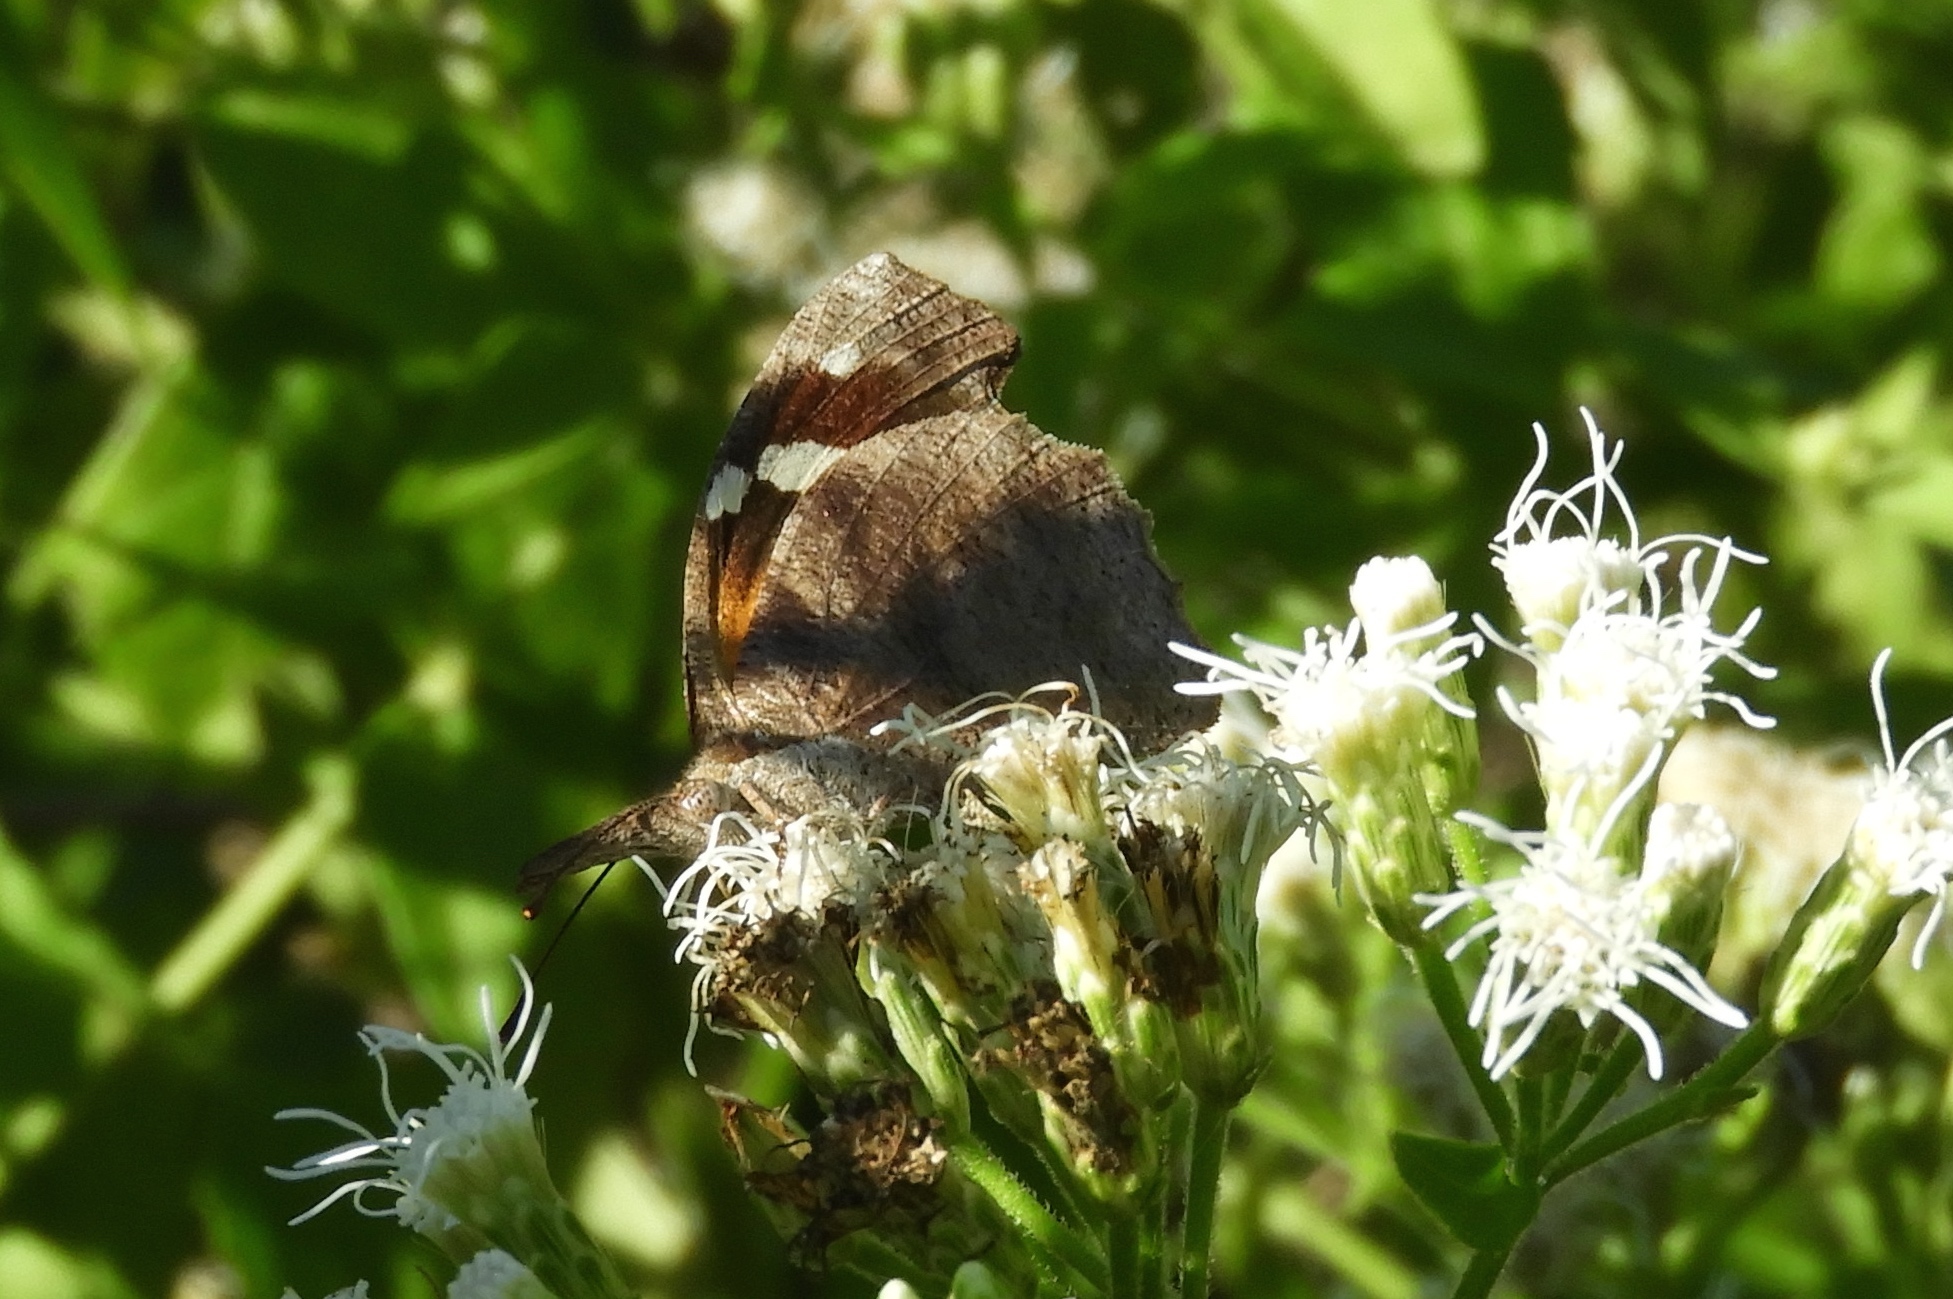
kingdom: Animalia
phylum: Arthropoda
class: Insecta
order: Lepidoptera
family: Nymphalidae
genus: Libytheana
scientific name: Libytheana carinenta
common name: American snout
